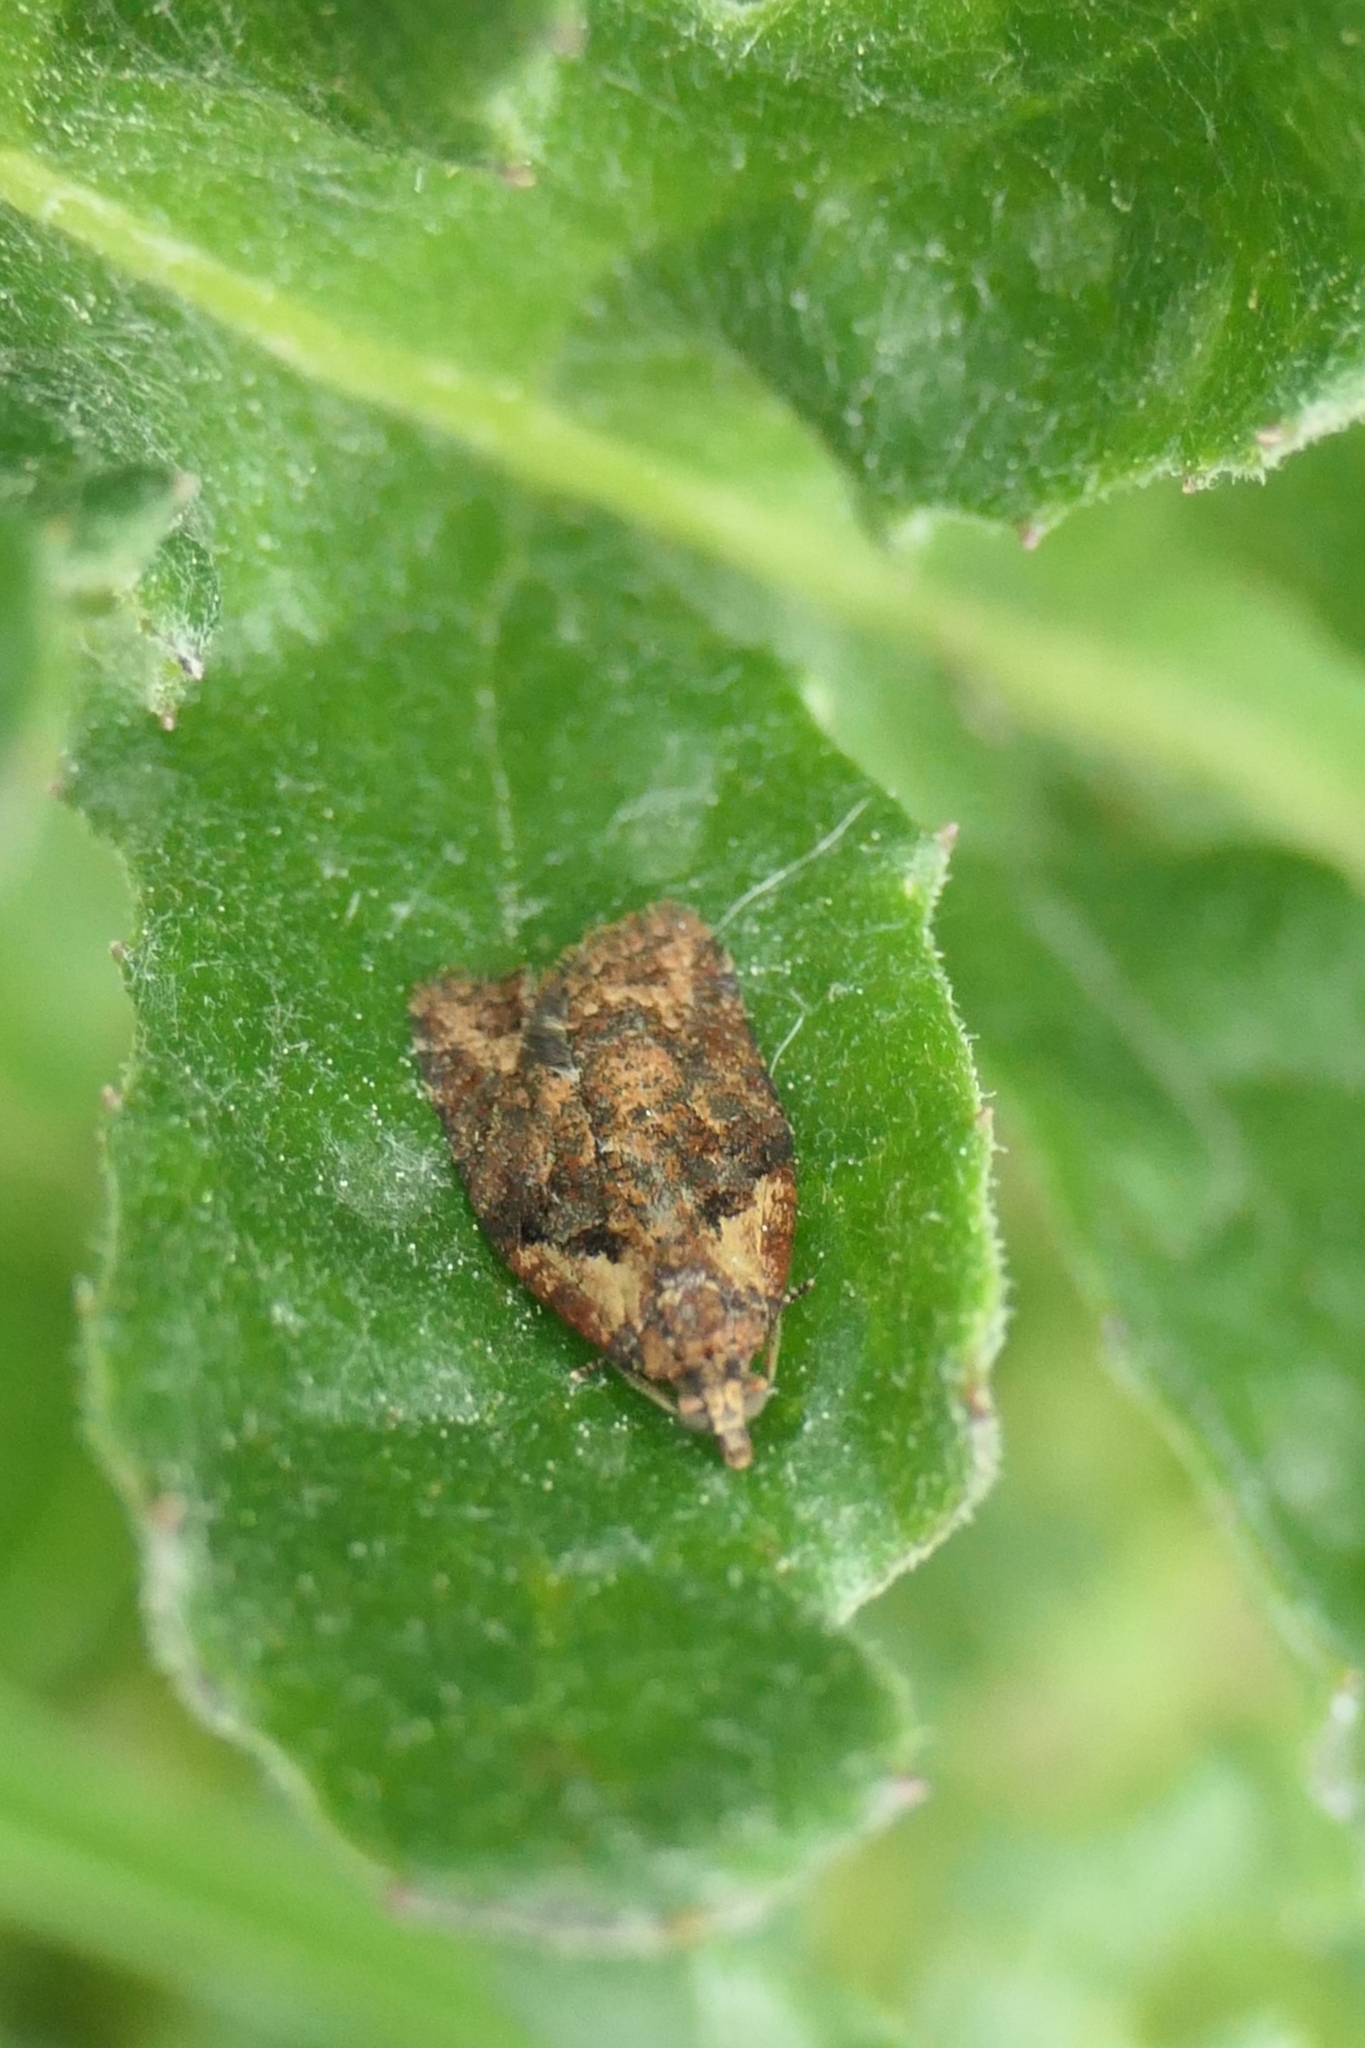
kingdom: Animalia
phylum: Arthropoda
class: Insecta
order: Lepidoptera
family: Tortricidae
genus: Capua
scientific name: Capua intractana
